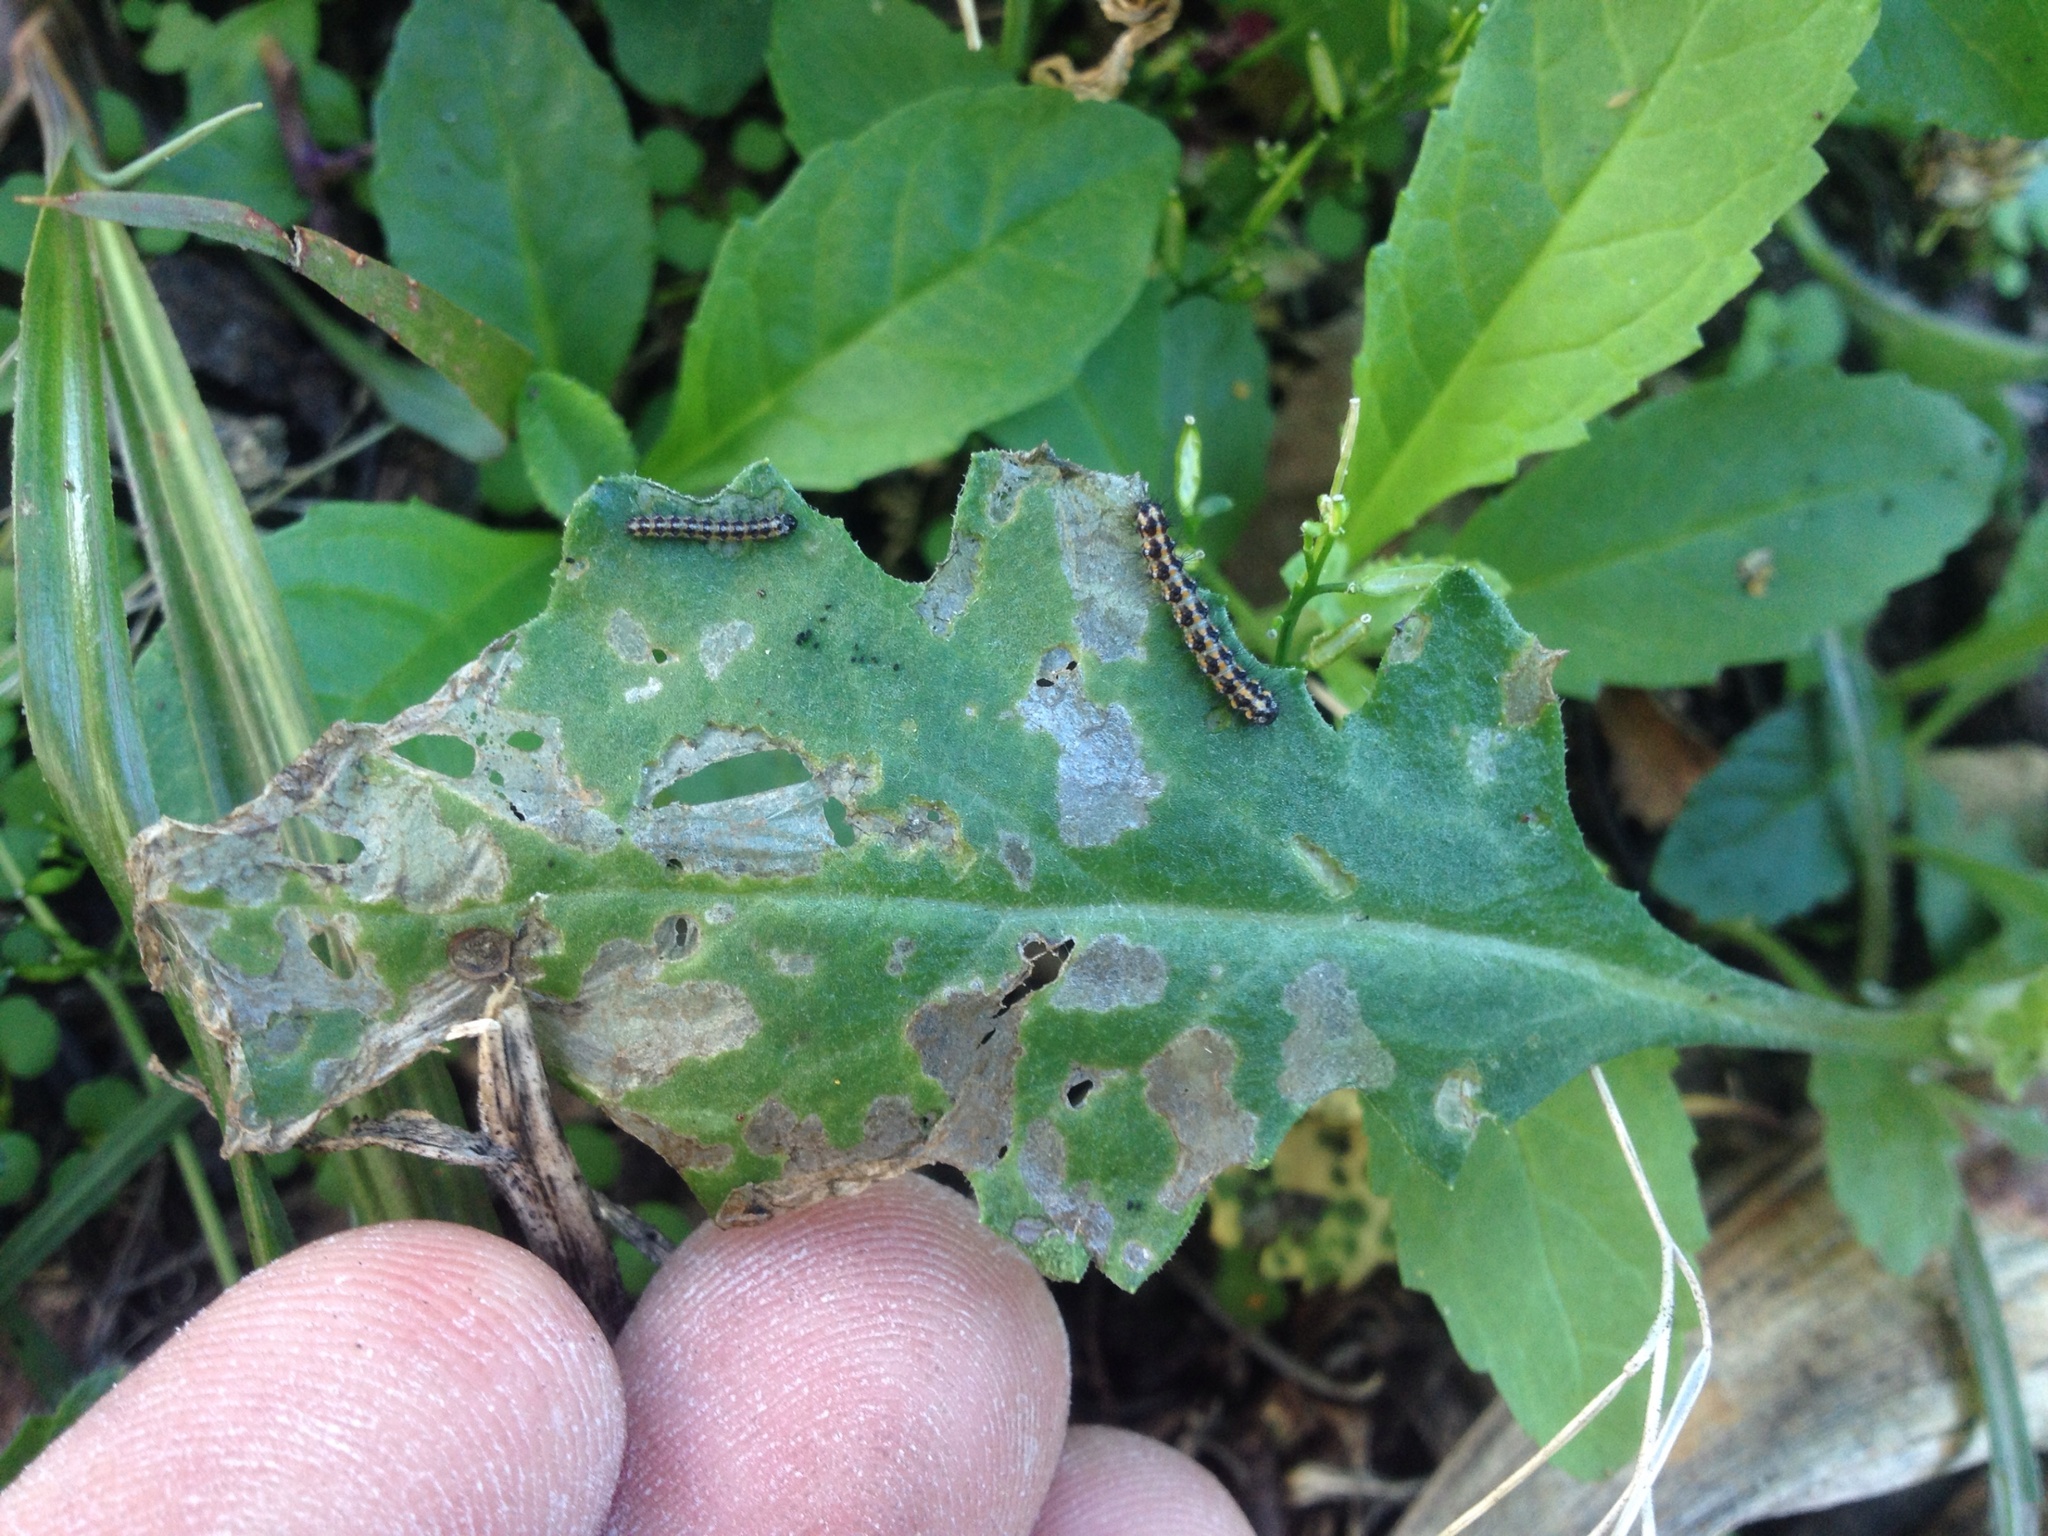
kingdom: Animalia
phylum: Arthropoda
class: Insecta
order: Lepidoptera
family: Erebidae
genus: Nyctemera
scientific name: Nyctemera annulatum
